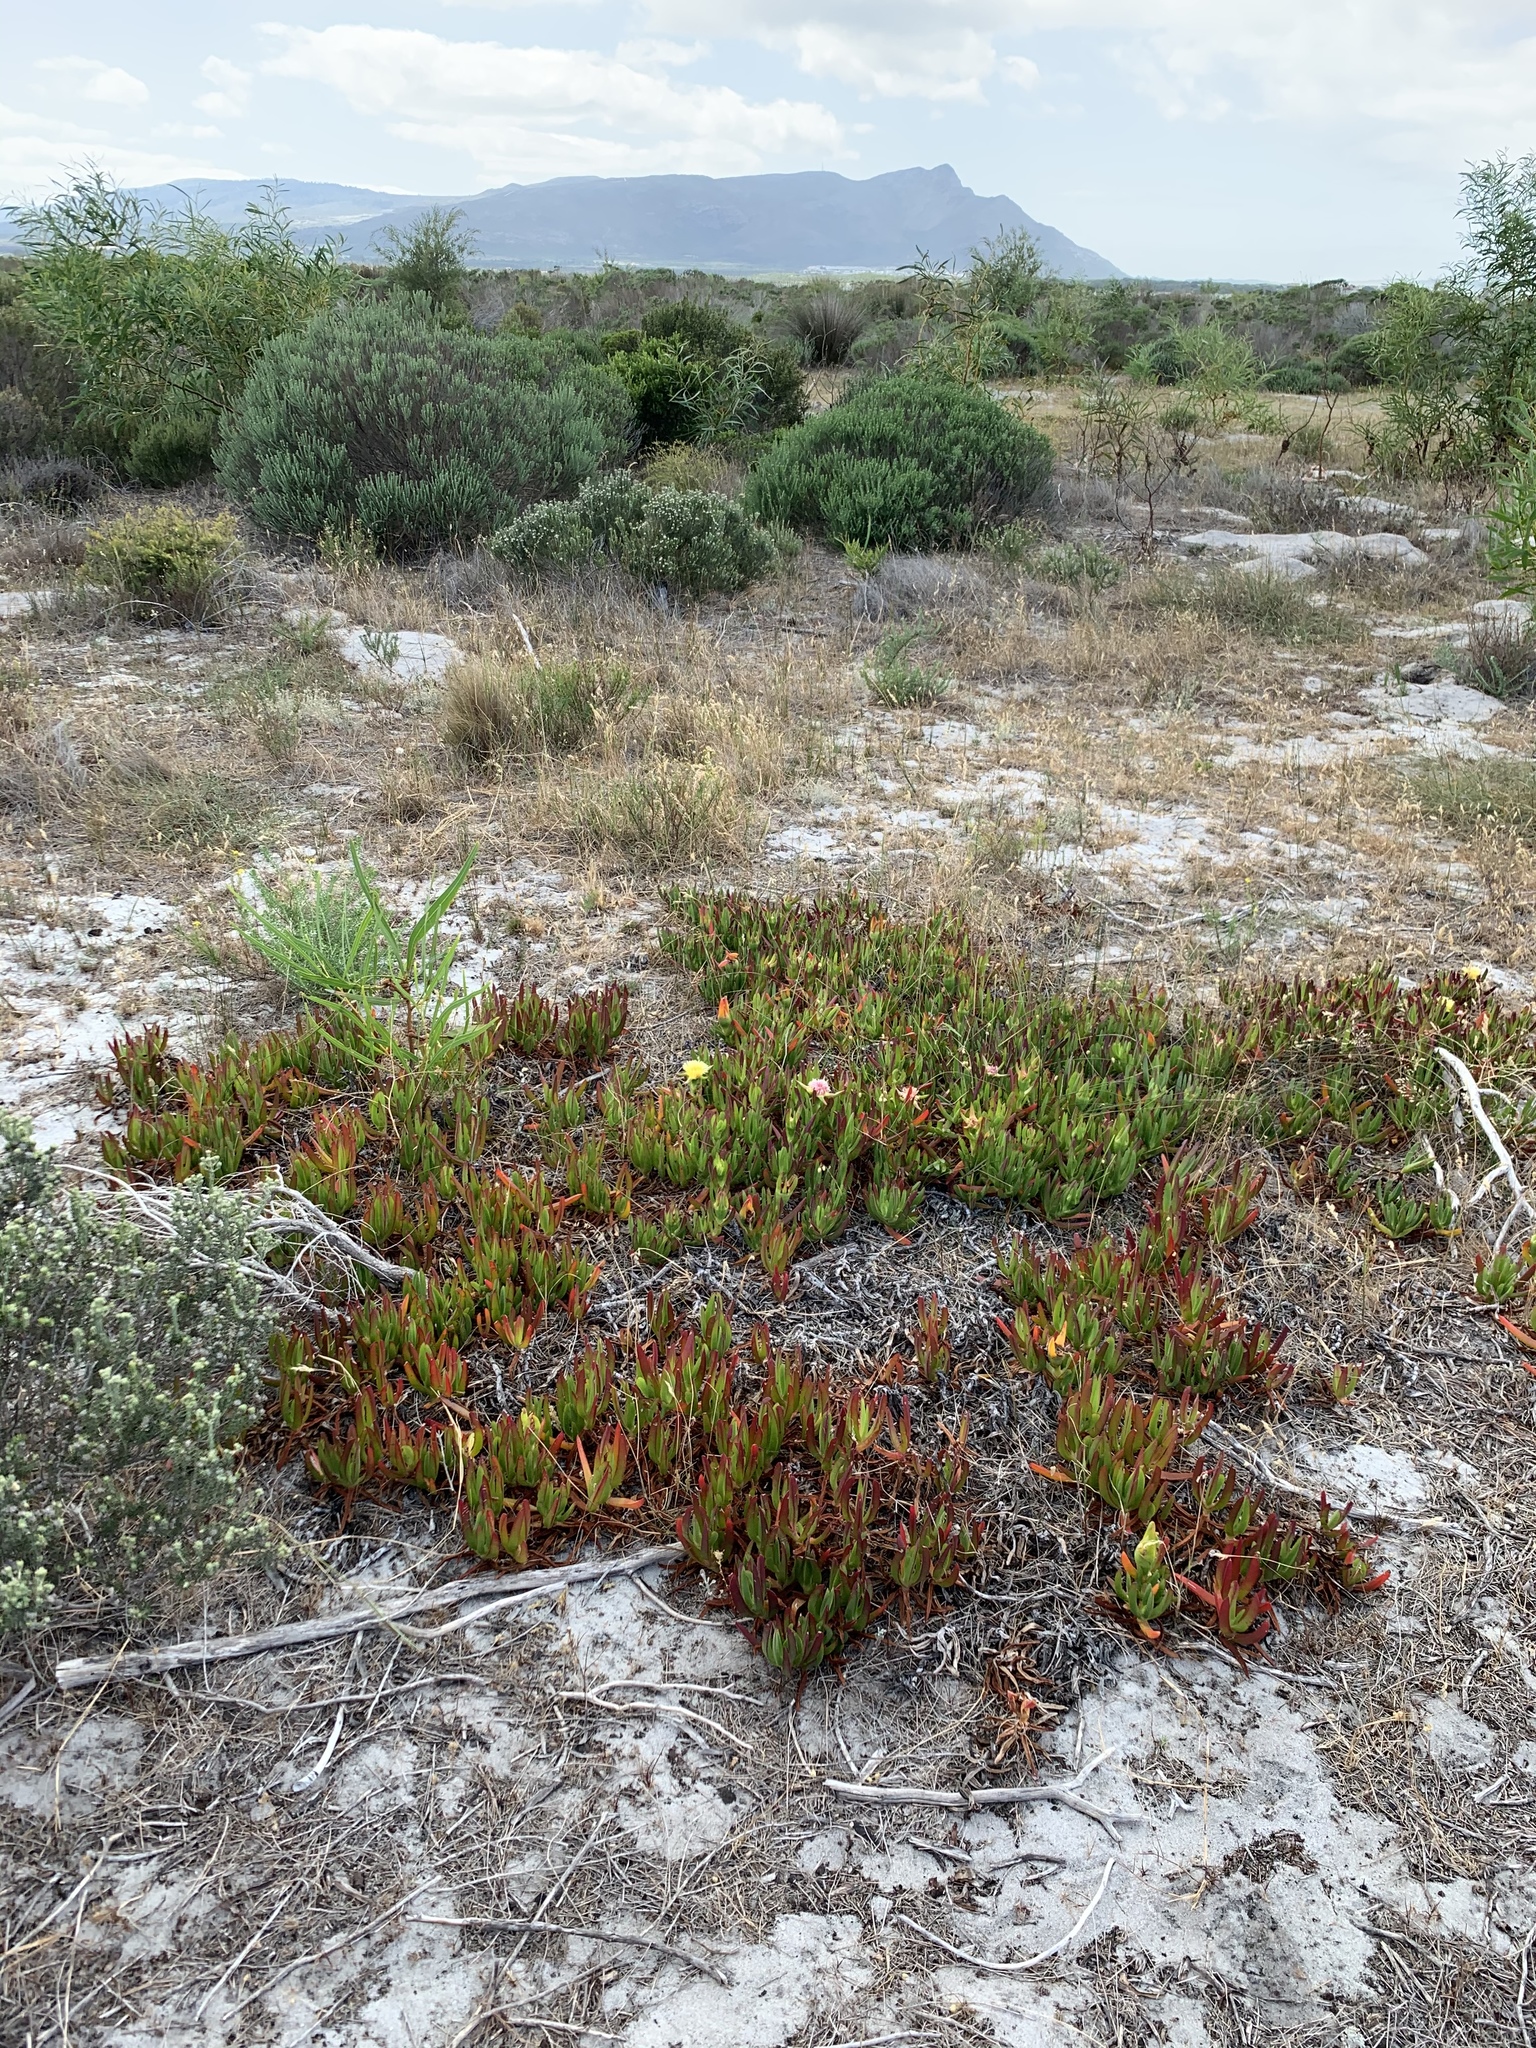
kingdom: Plantae
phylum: Tracheophyta
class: Magnoliopsida
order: Caryophyllales
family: Aizoaceae
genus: Carpobrotus
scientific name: Carpobrotus edulis
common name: Hottentot-fig
